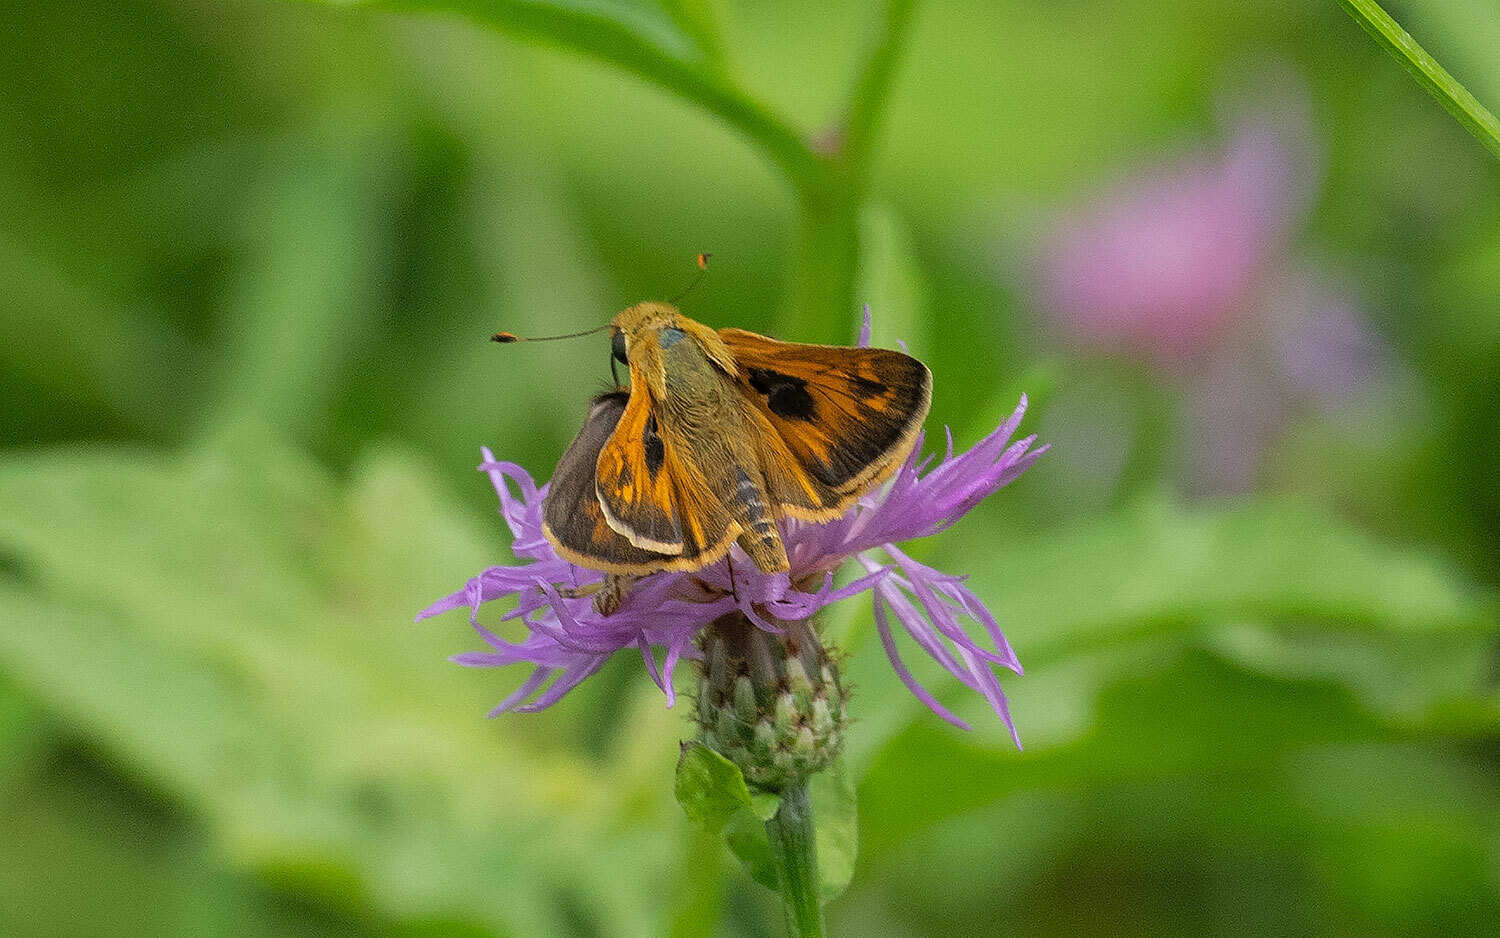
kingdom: Animalia
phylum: Arthropoda
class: Insecta
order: Lepidoptera
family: Hesperiidae
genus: Atalopedes
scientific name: Atalopedes
